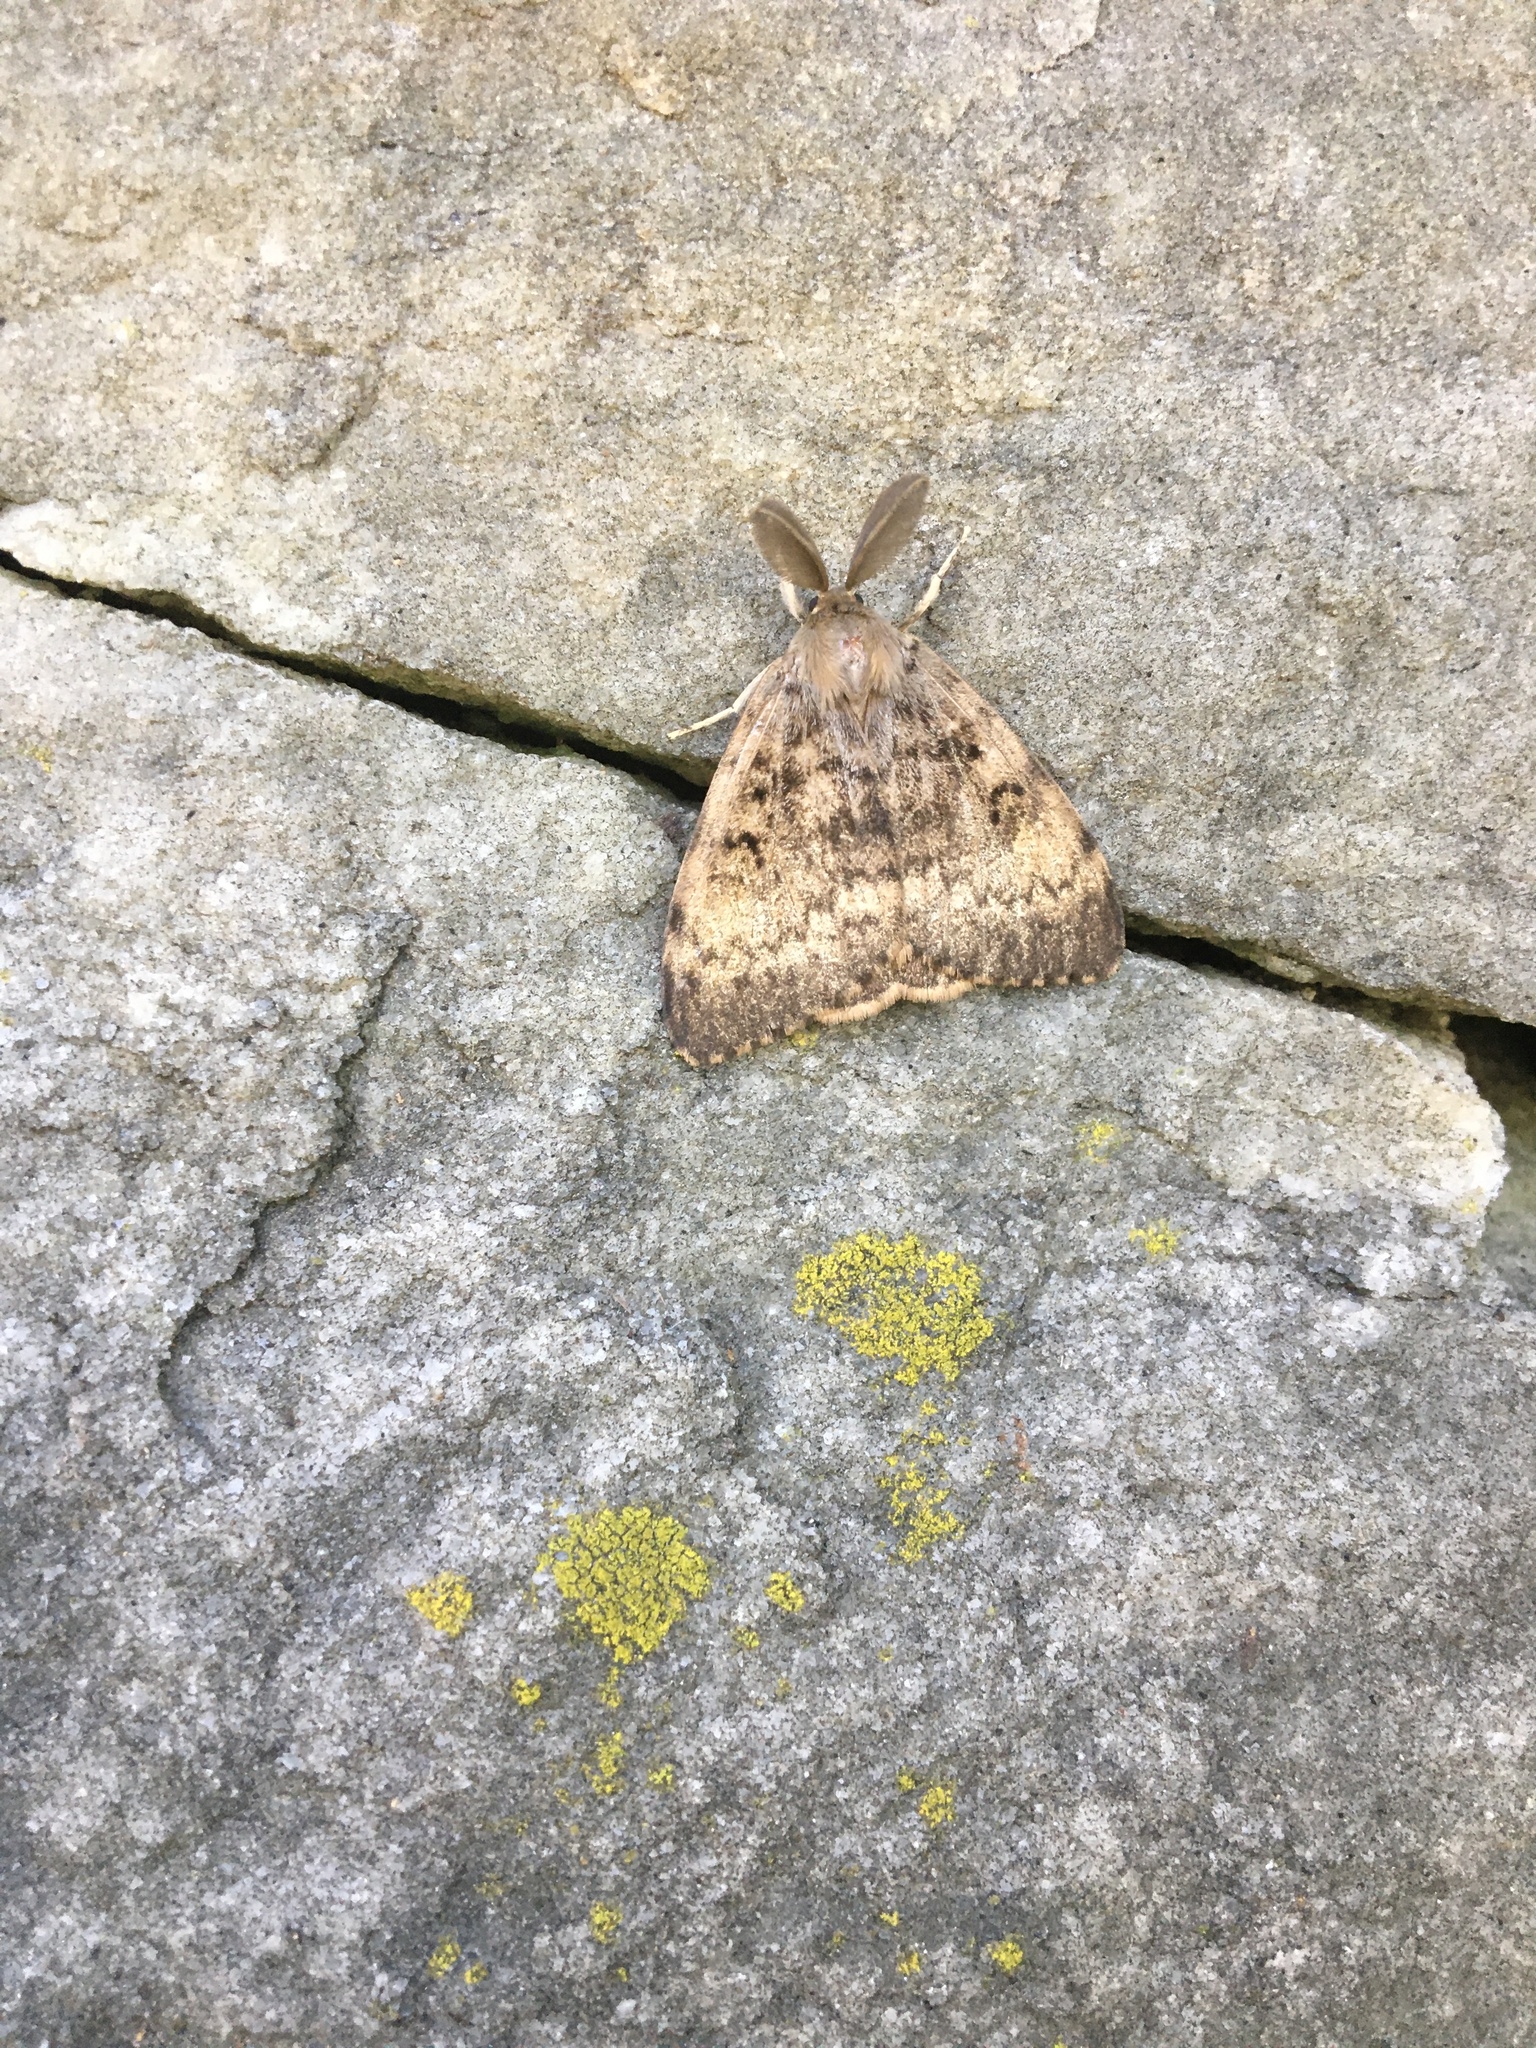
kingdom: Animalia
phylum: Arthropoda
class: Insecta
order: Lepidoptera
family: Erebidae
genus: Lymantria
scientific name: Lymantria dispar
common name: Gypsy moth
